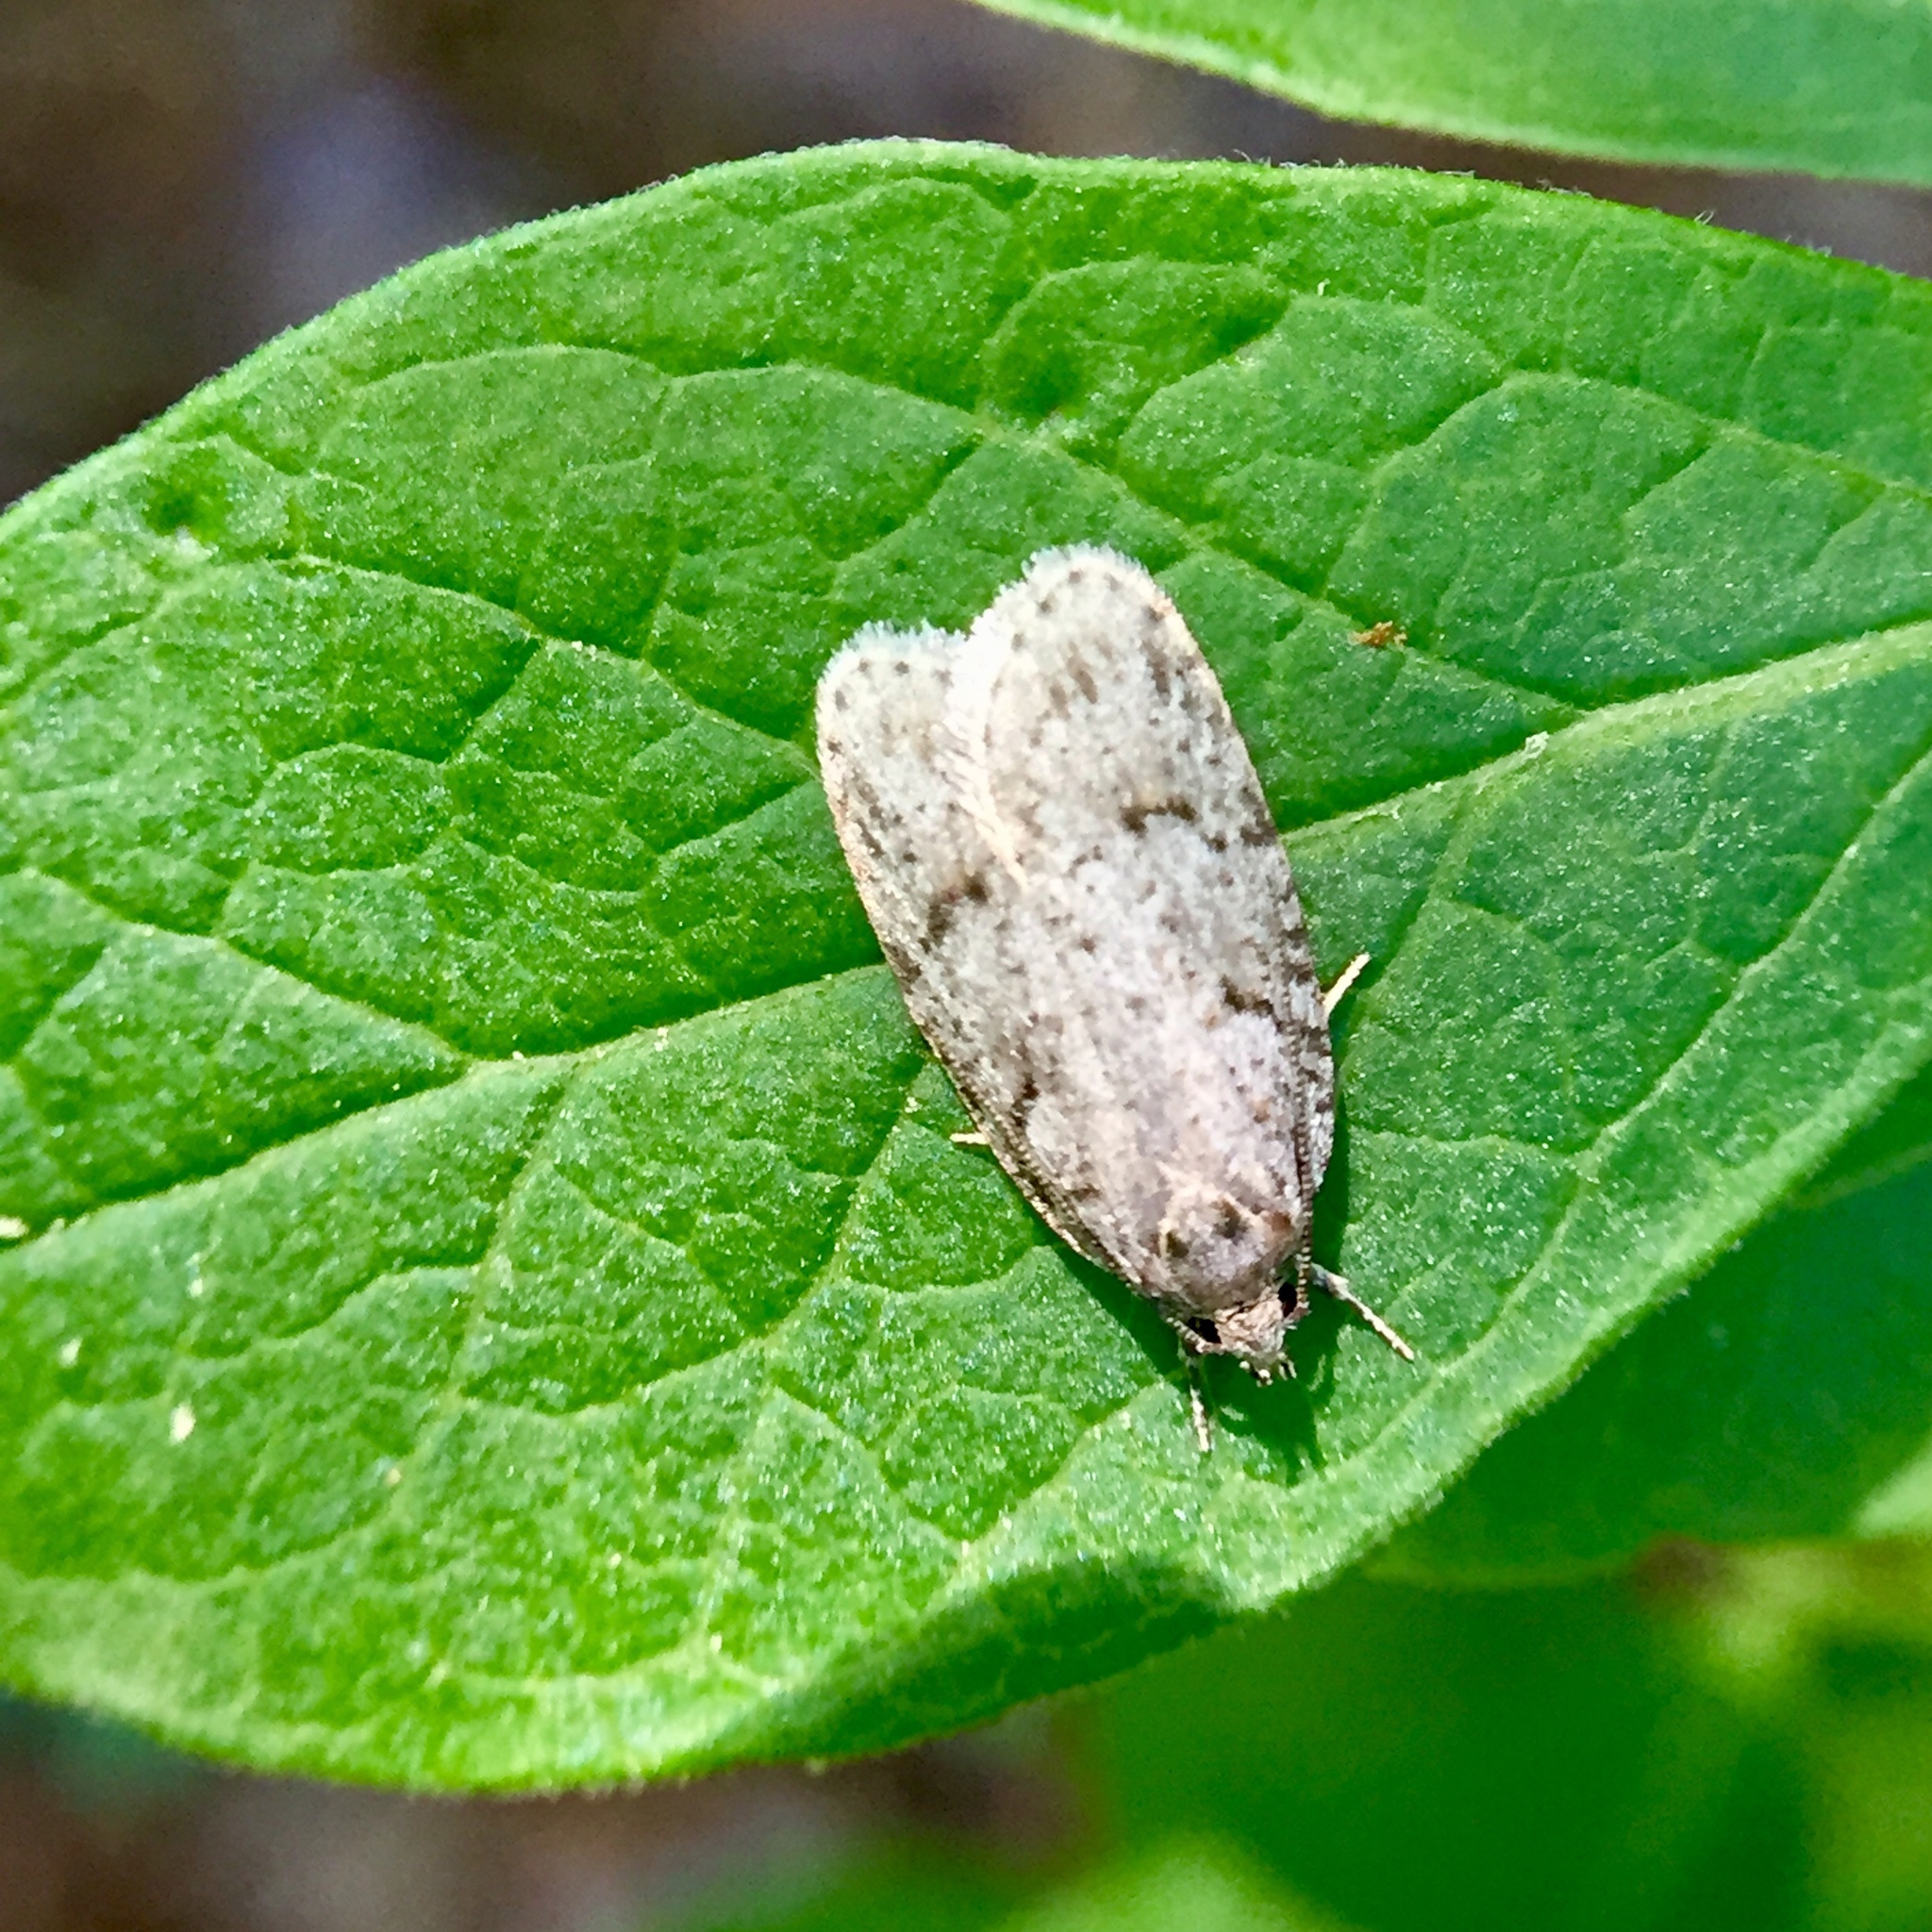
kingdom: Animalia
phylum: Arthropoda
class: Insecta
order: Lepidoptera
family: Depressariidae
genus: Bibarrambla
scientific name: Bibarrambla allenella
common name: Bog bibarrambla moth
